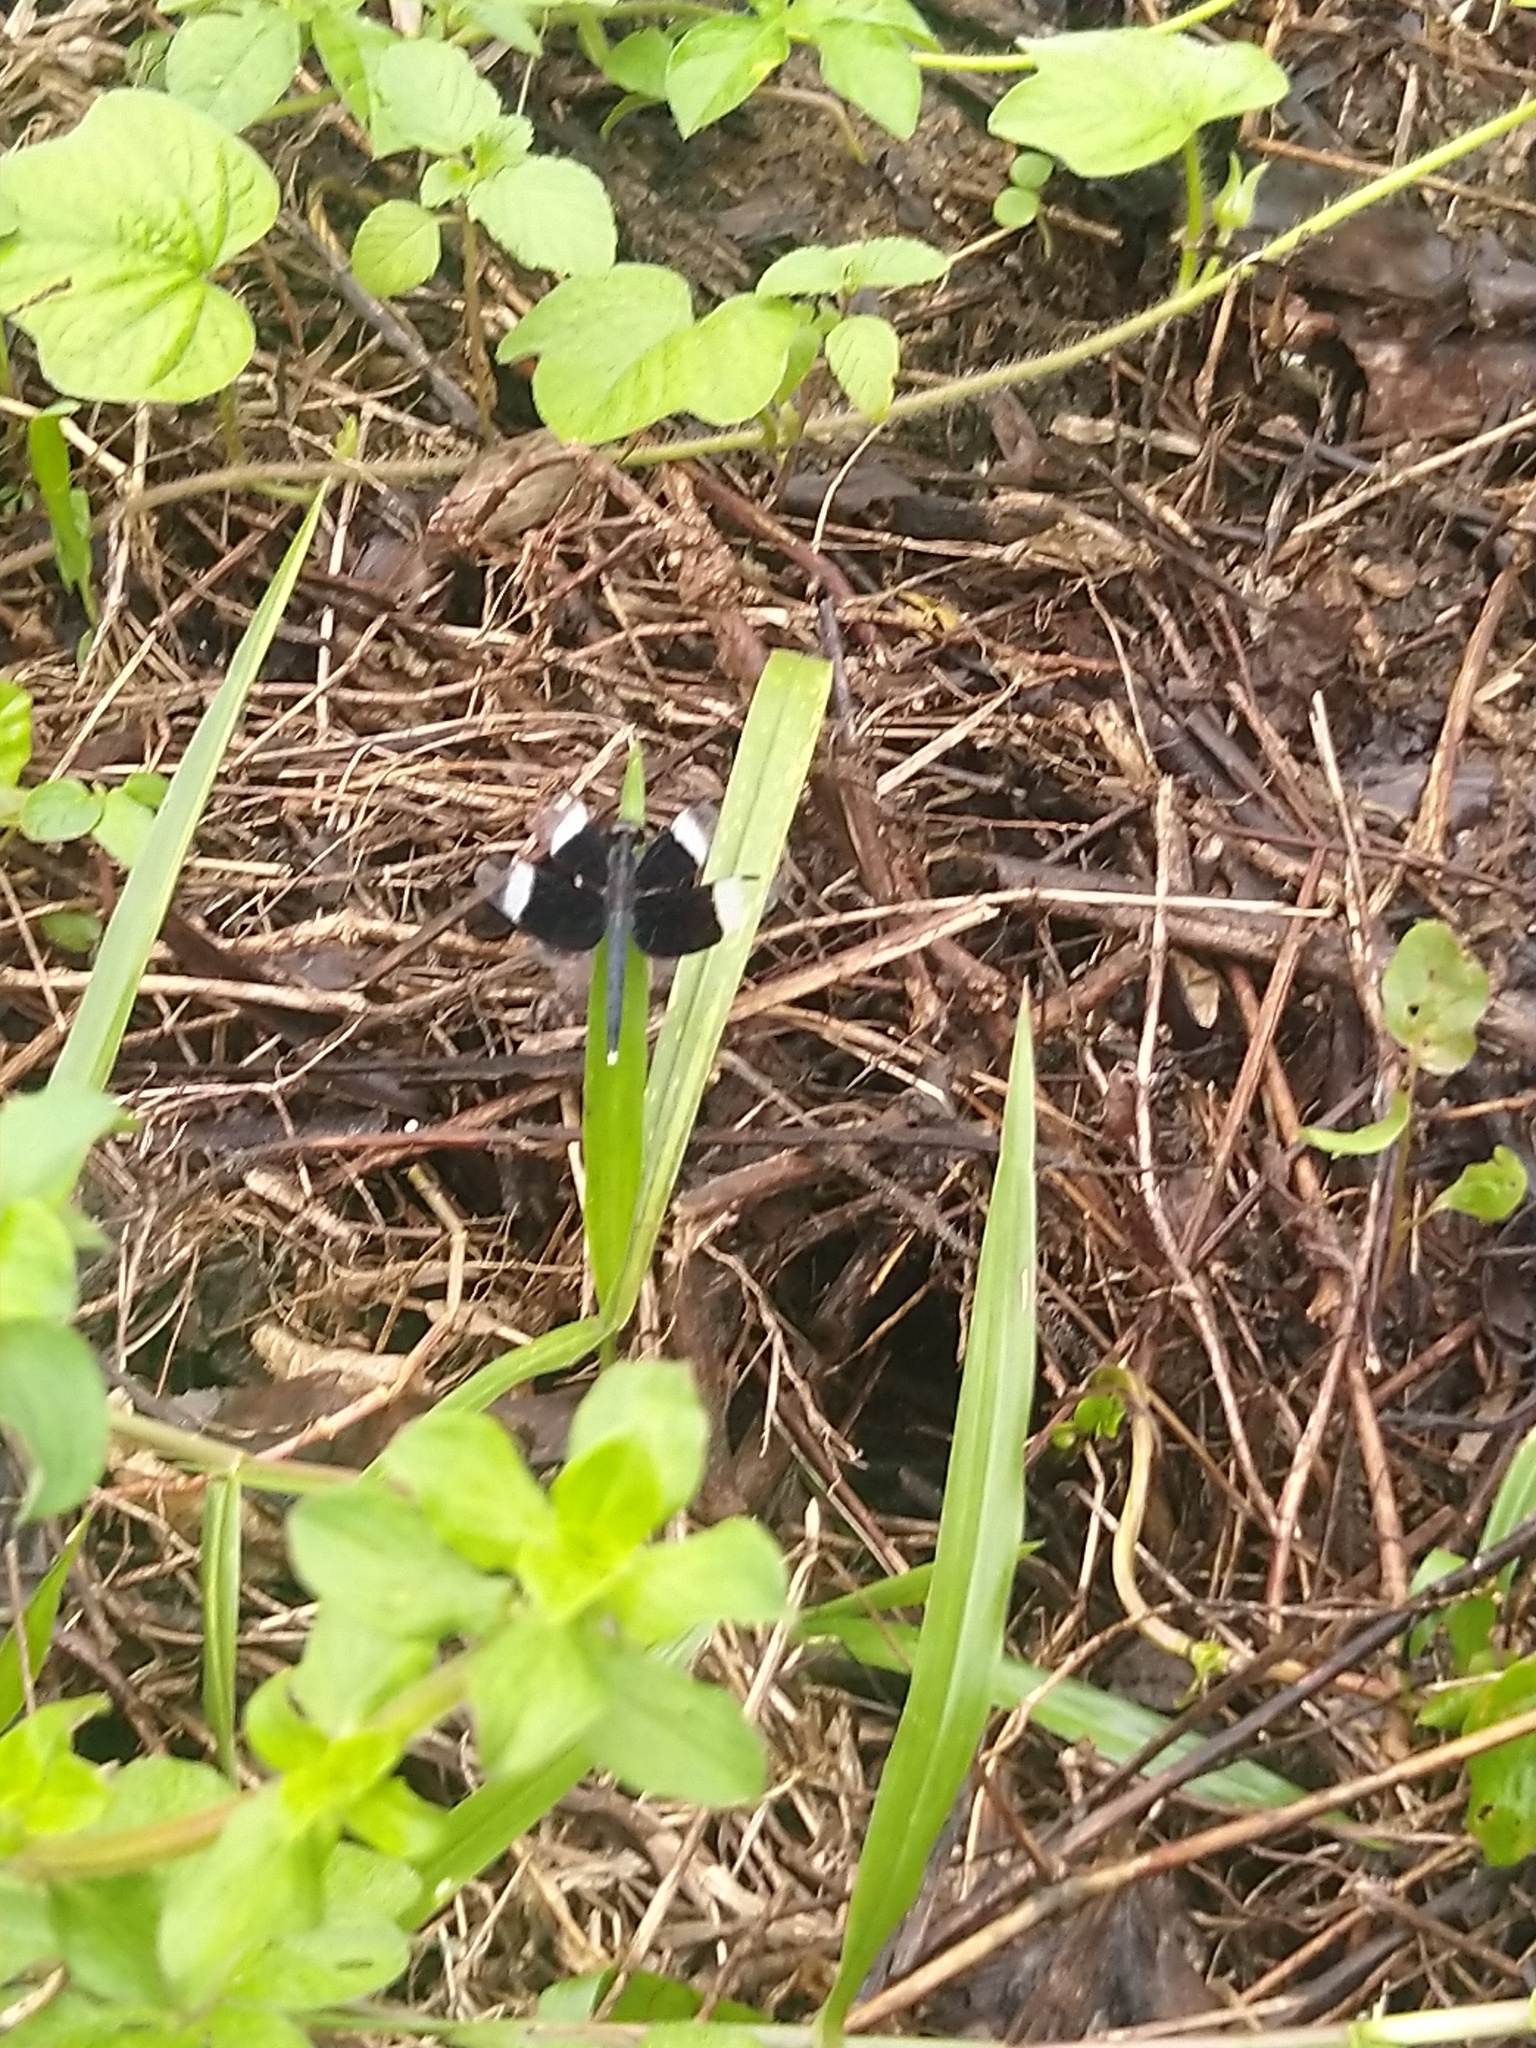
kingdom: Animalia
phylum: Arthropoda
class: Insecta
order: Odonata
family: Libellulidae
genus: Neurothemis
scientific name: Neurothemis tullia
